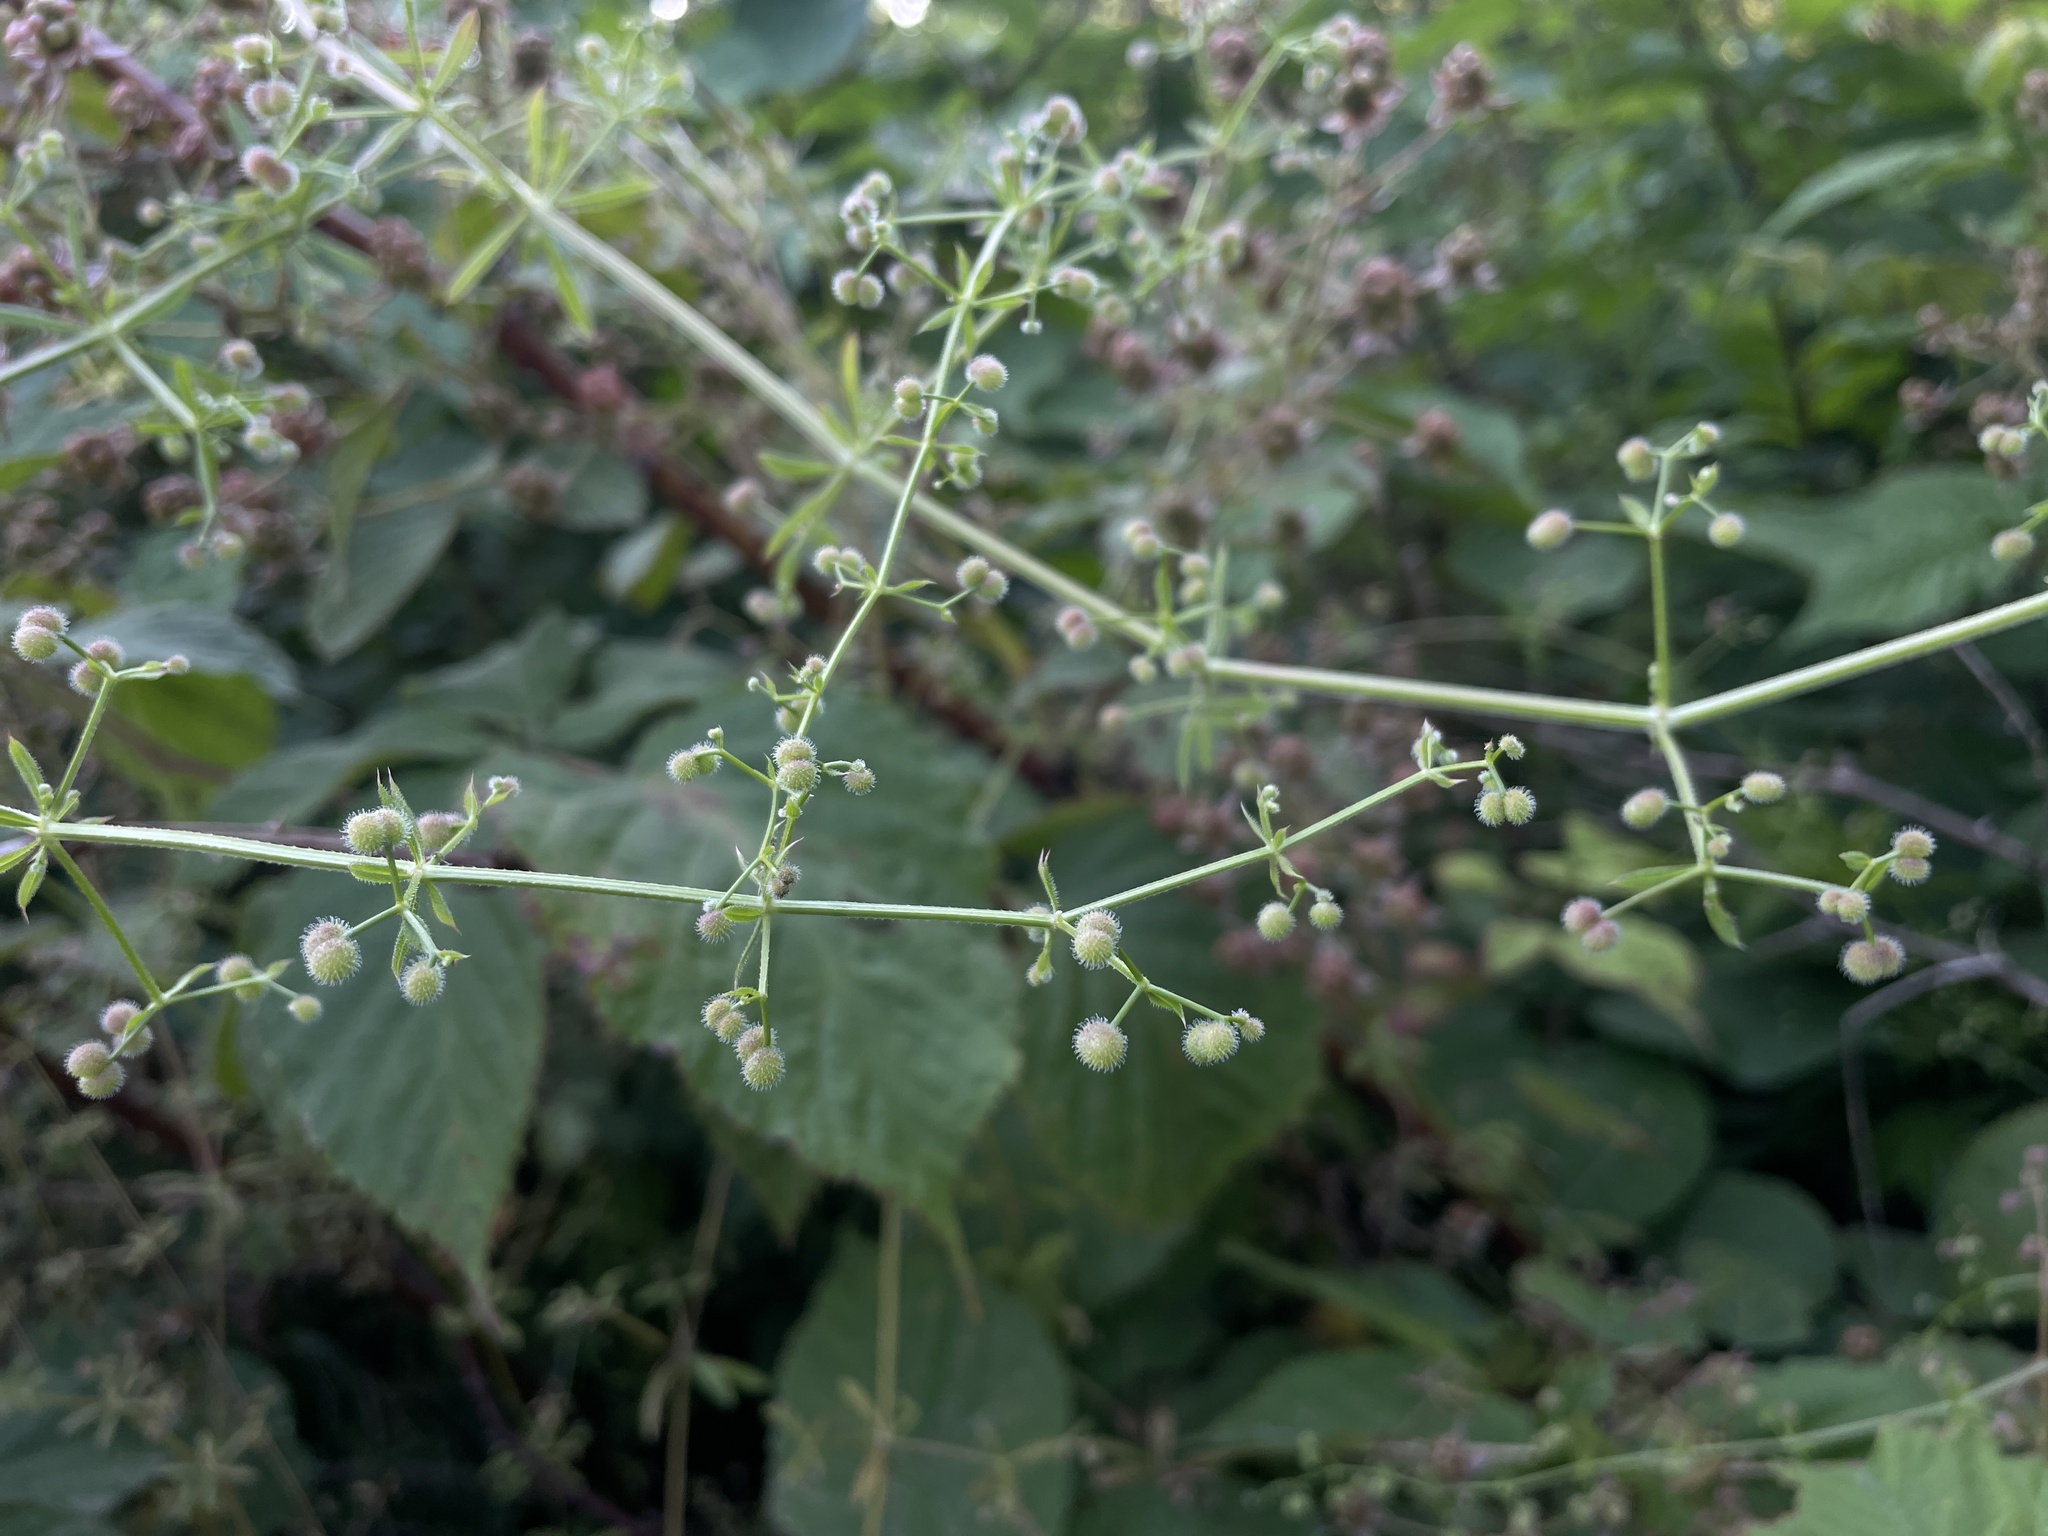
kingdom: Plantae
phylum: Tracheophyta
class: Magnoliopsida
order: Gentianales
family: Rubiaceae
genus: Galium
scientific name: Galium aparine
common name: Cleavers
